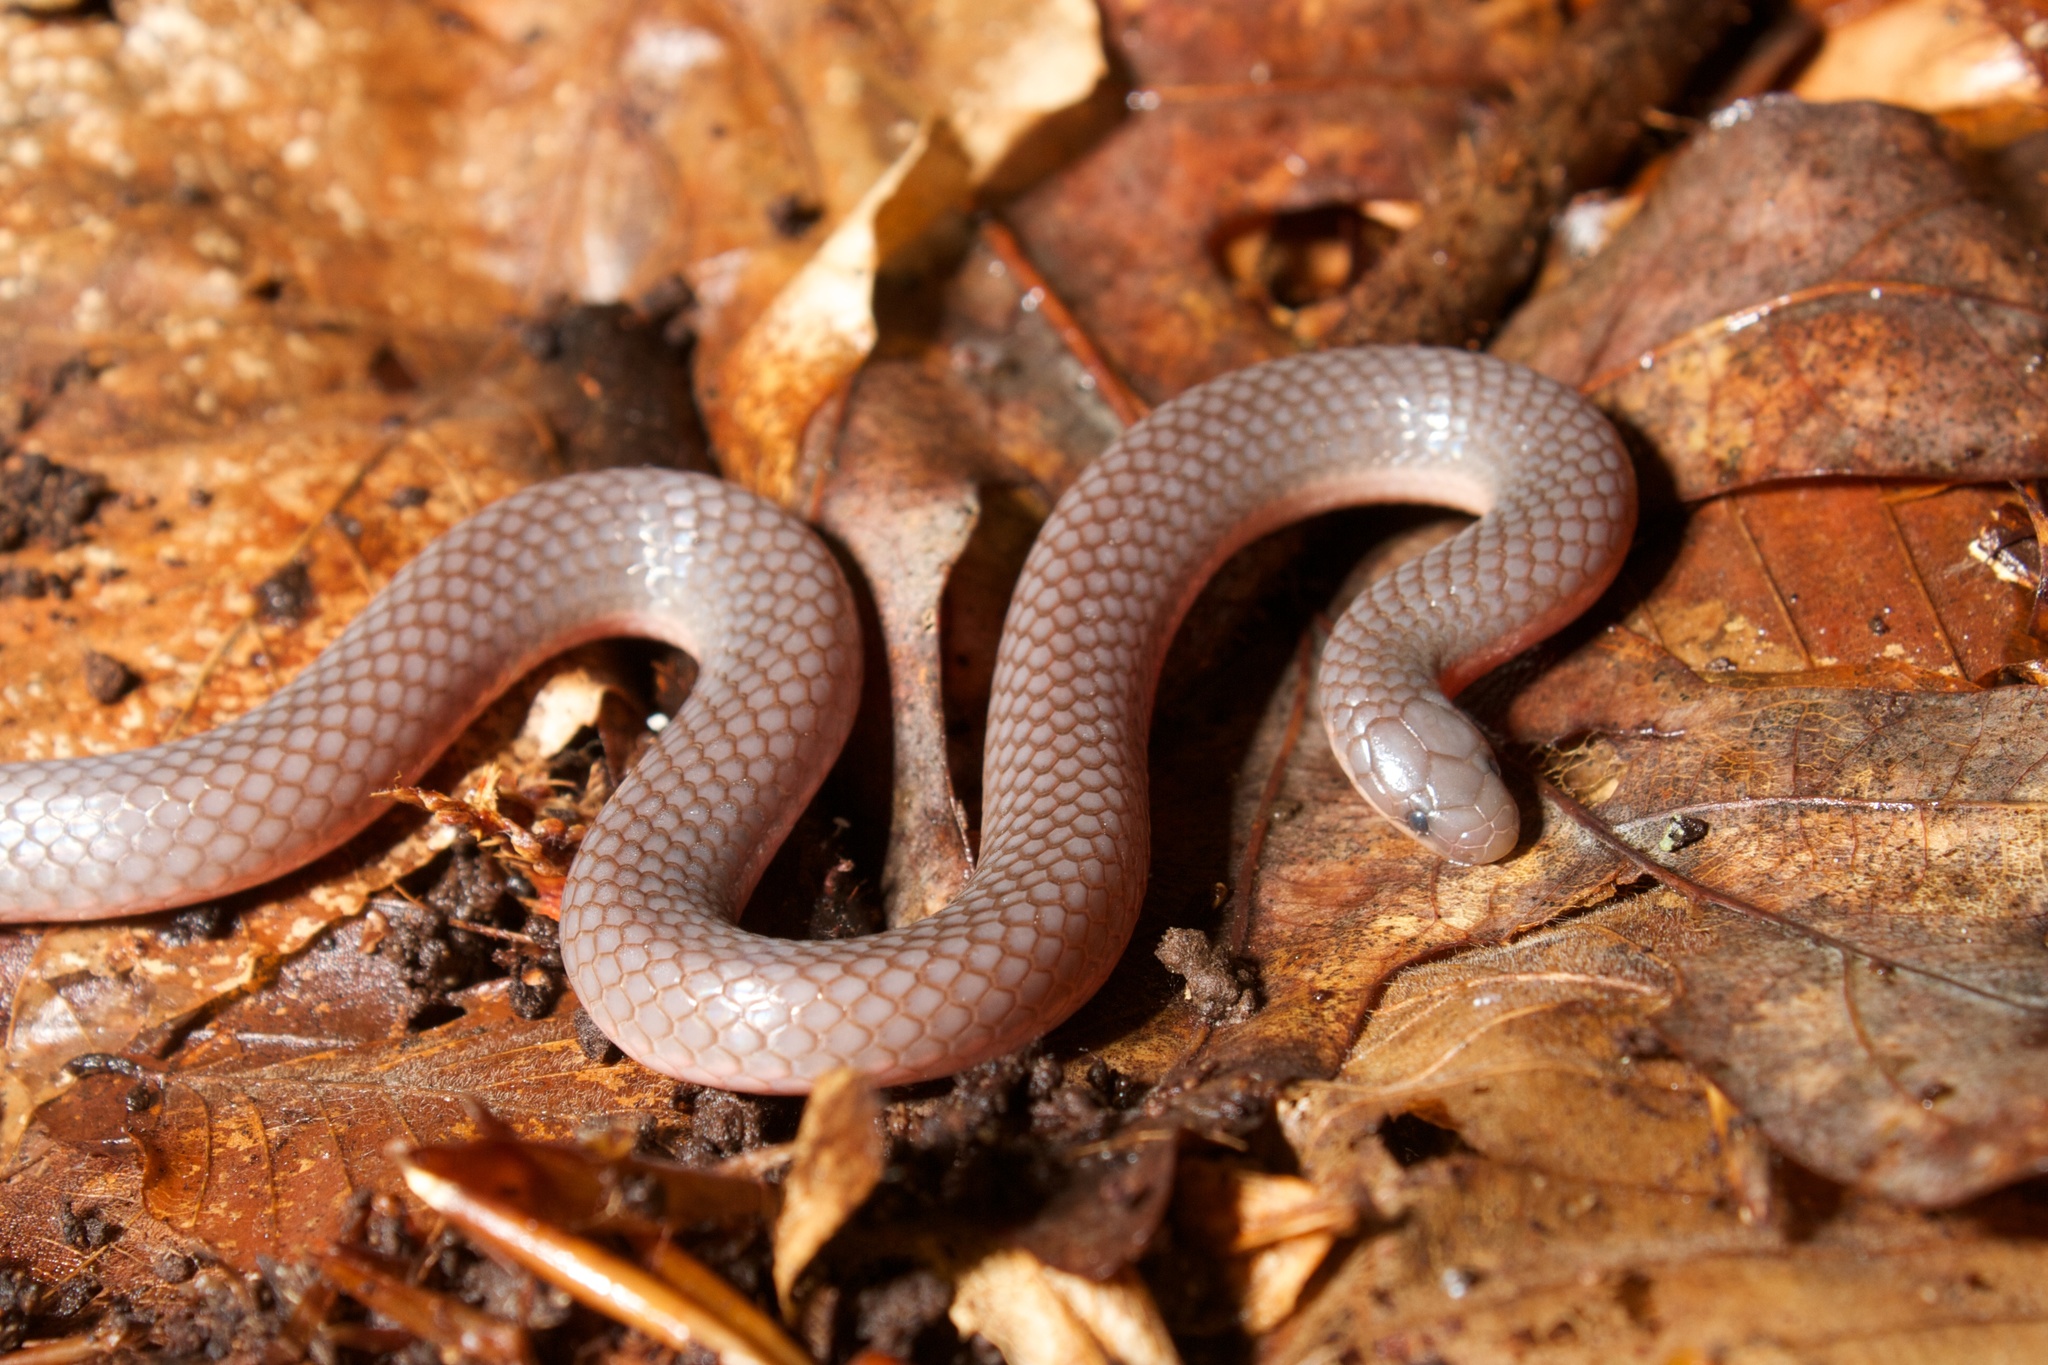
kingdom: Animalia
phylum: Chordata
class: Squamata
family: Colubridae
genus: Carphophis
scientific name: Carphophis amoenus
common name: Eastern worm snake
